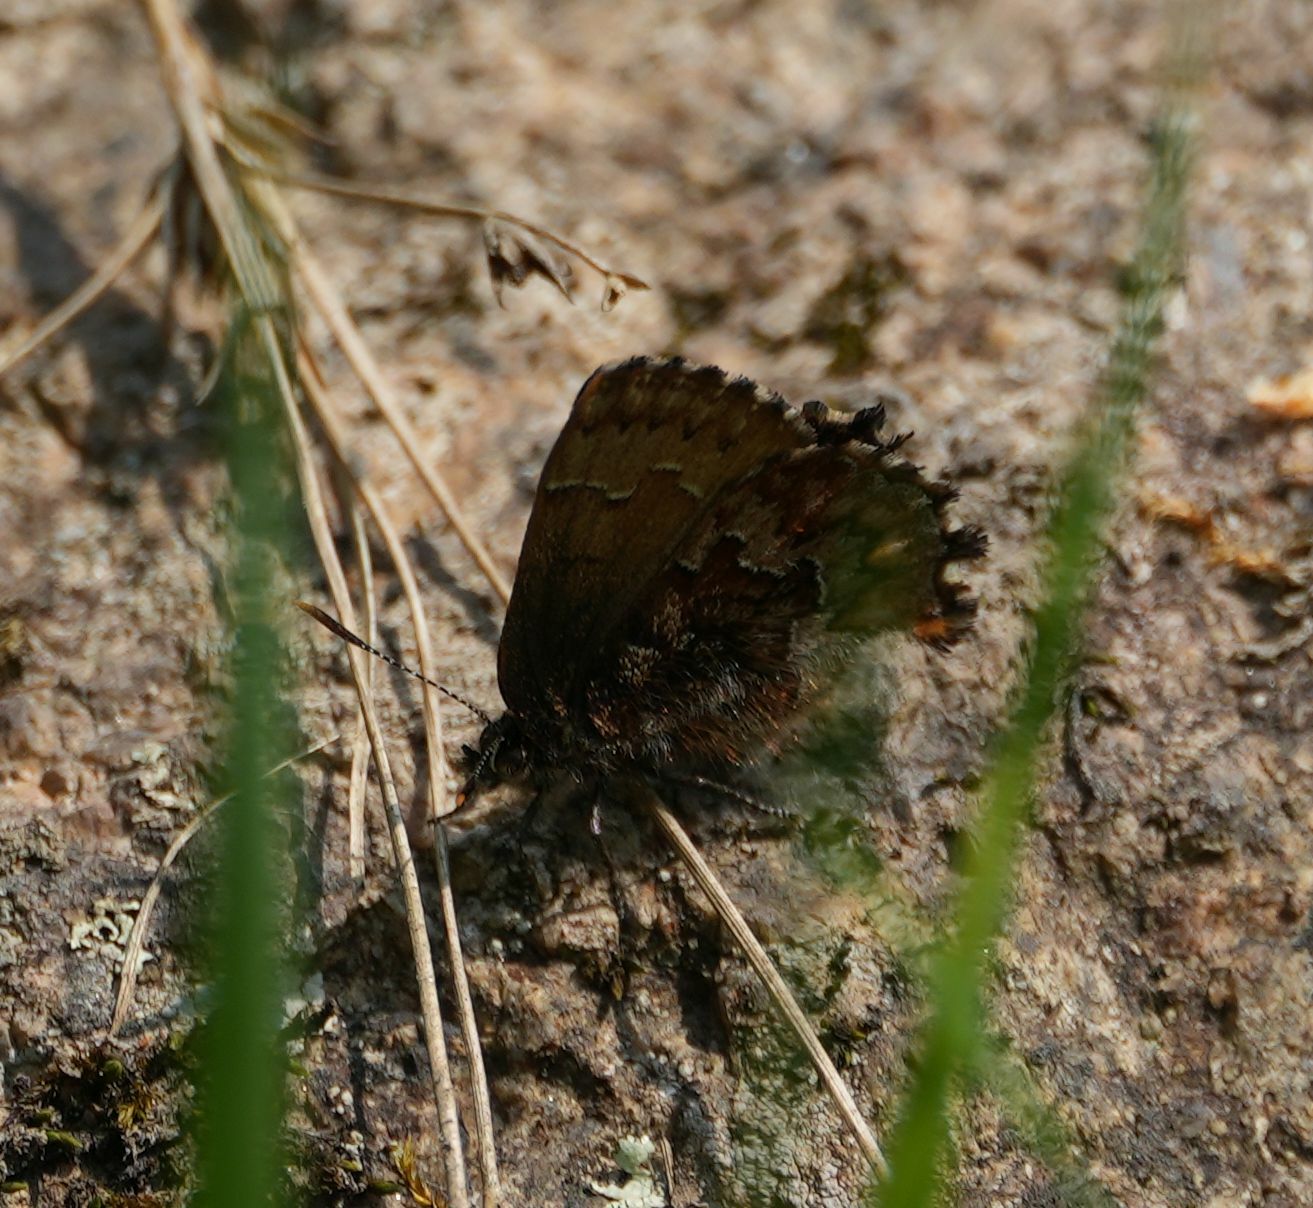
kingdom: Animalia
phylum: Arthropoda
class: Insecta
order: Lepidoptera
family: Lycaenidae
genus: Incisalia
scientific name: Incisalia niphon
